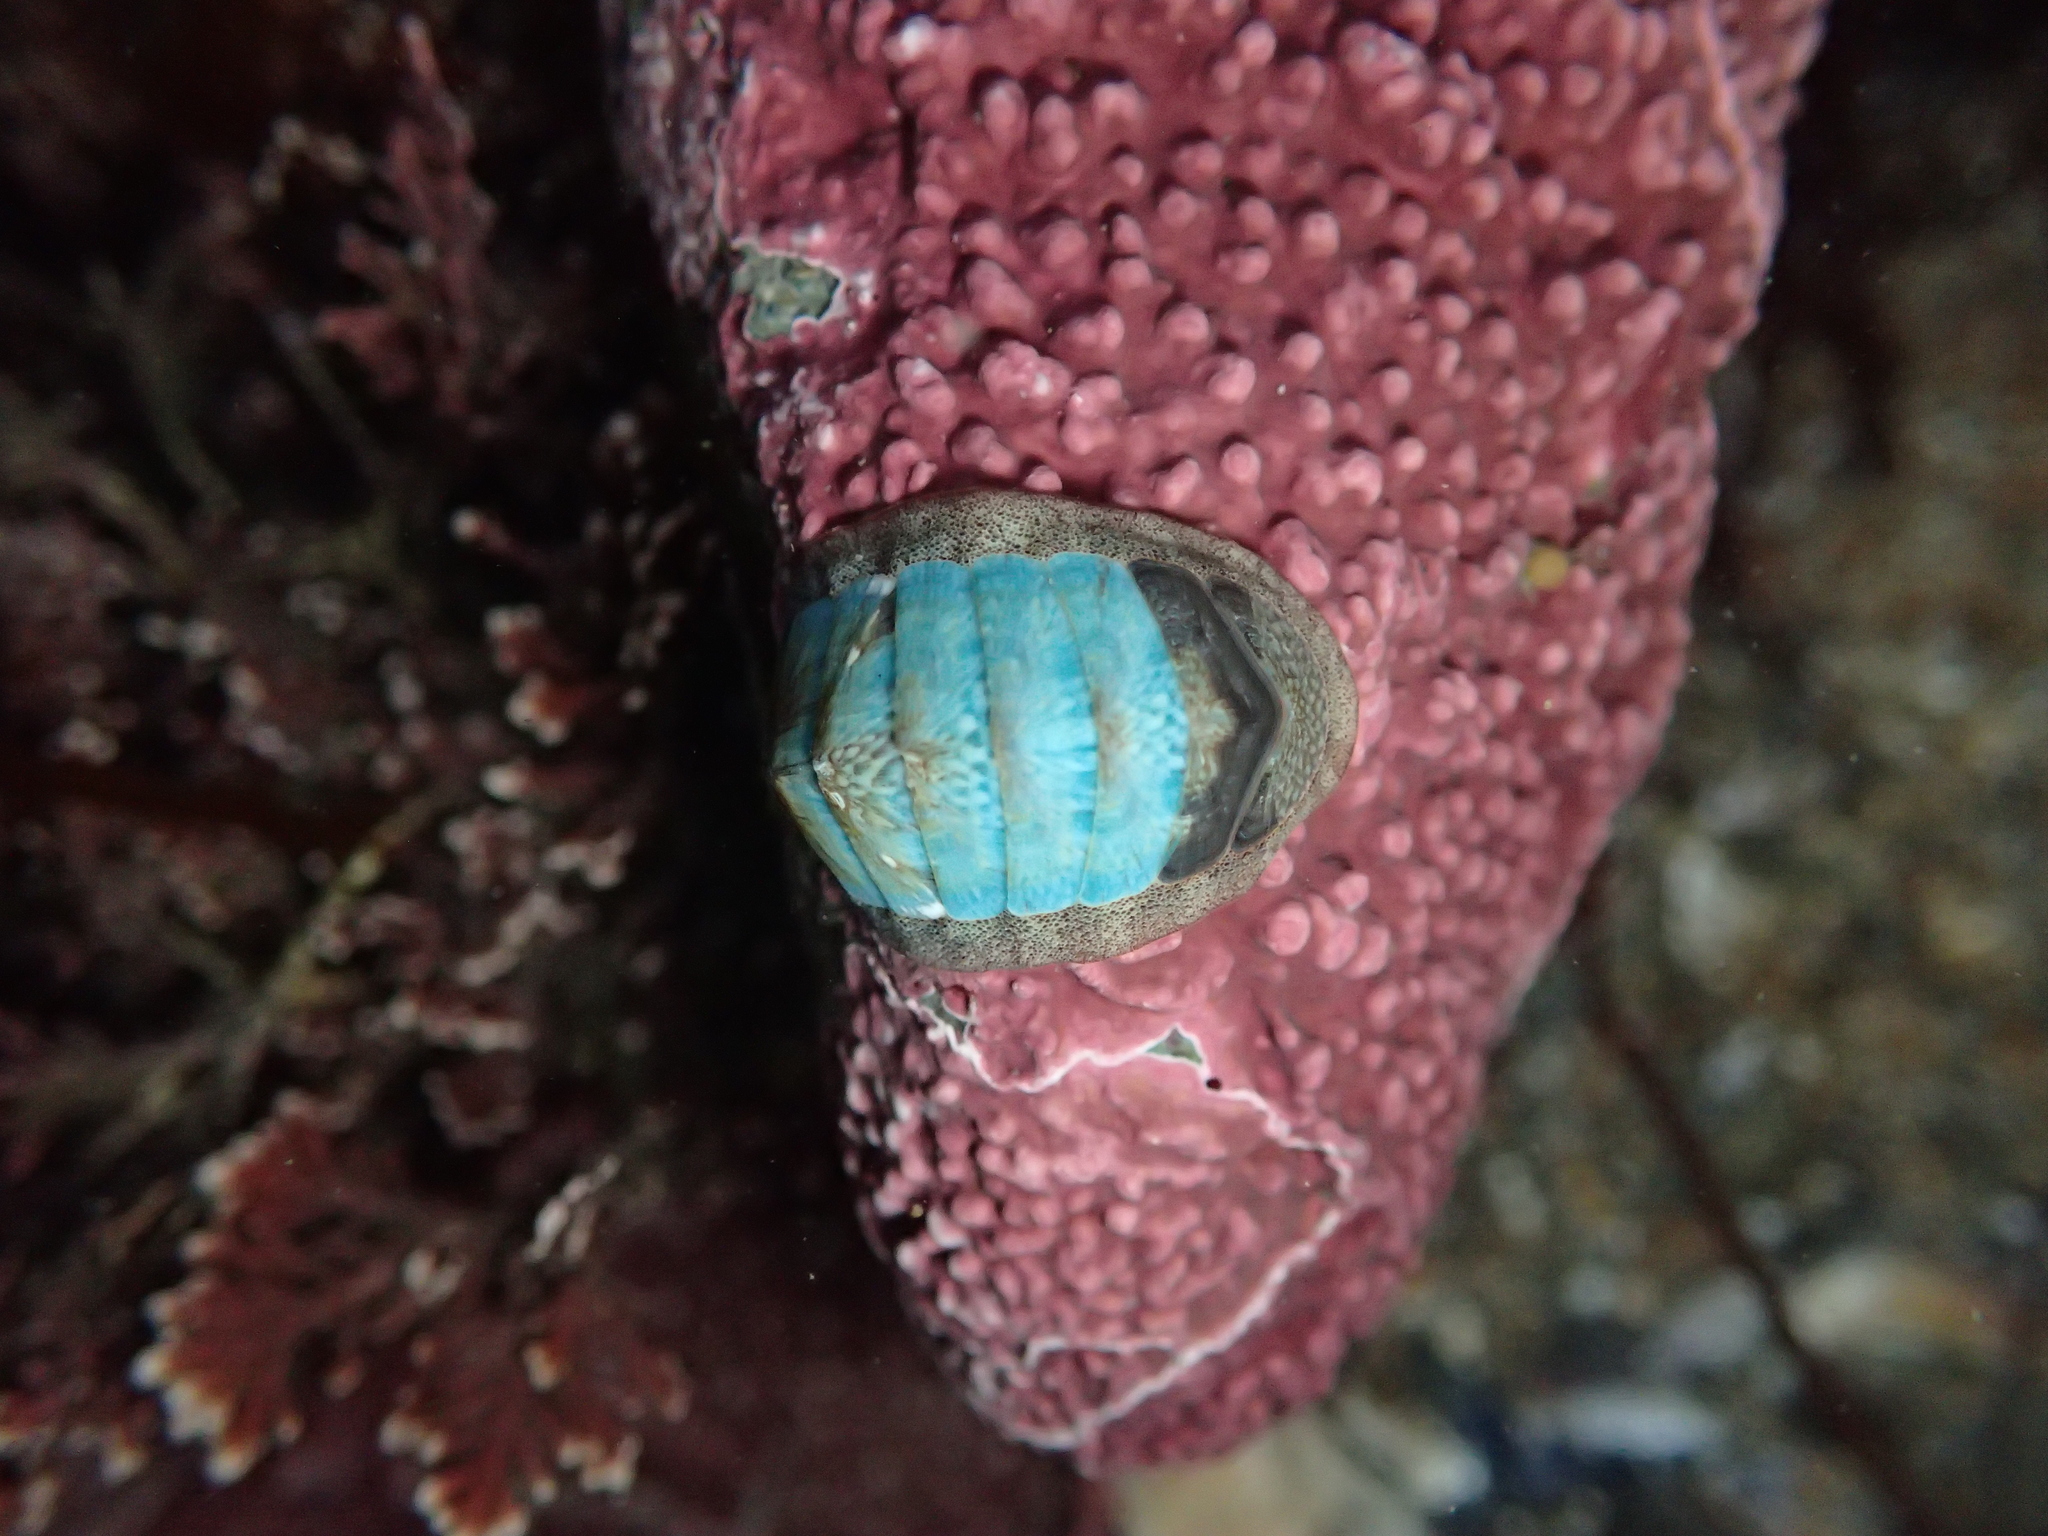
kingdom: Animalia
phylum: Mollusca
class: Polyplacophora
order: Chitonida
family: Ischnochitonidae
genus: Lepidozona
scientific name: Lepidozona radians
